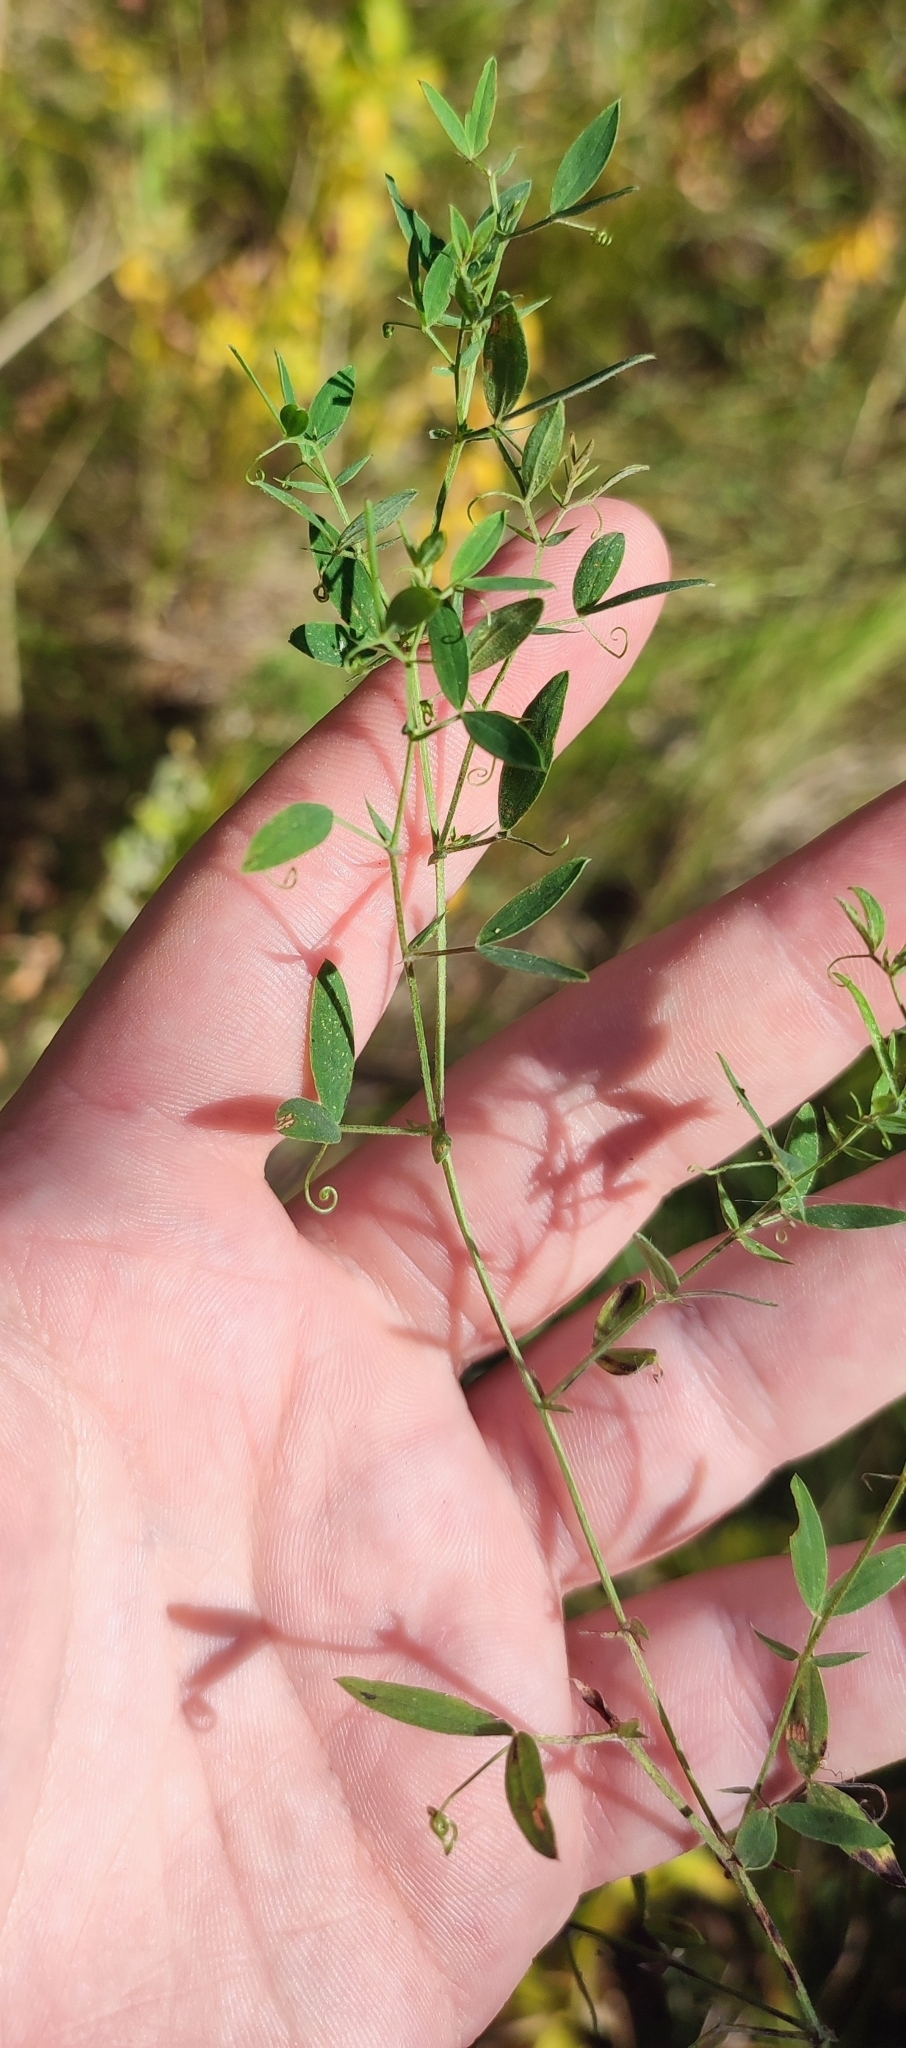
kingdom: Plantae
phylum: Tracheophyta
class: Magnoliopsida
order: Fabales
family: Fabaceae
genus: Lathyrus
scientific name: Lathyrus pratensis
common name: Meadow vetchling
